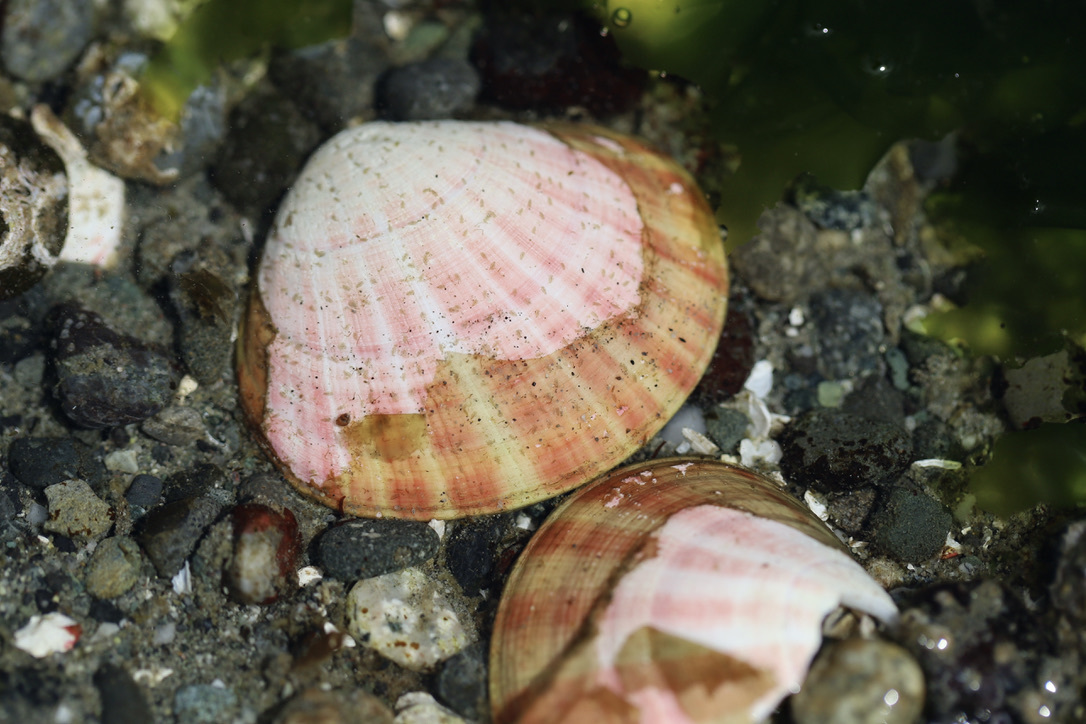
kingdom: Animalia
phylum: Mollusca
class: Bivalvia
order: Cardiida
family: Semelidae
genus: Semele
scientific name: Semele rubropicta
